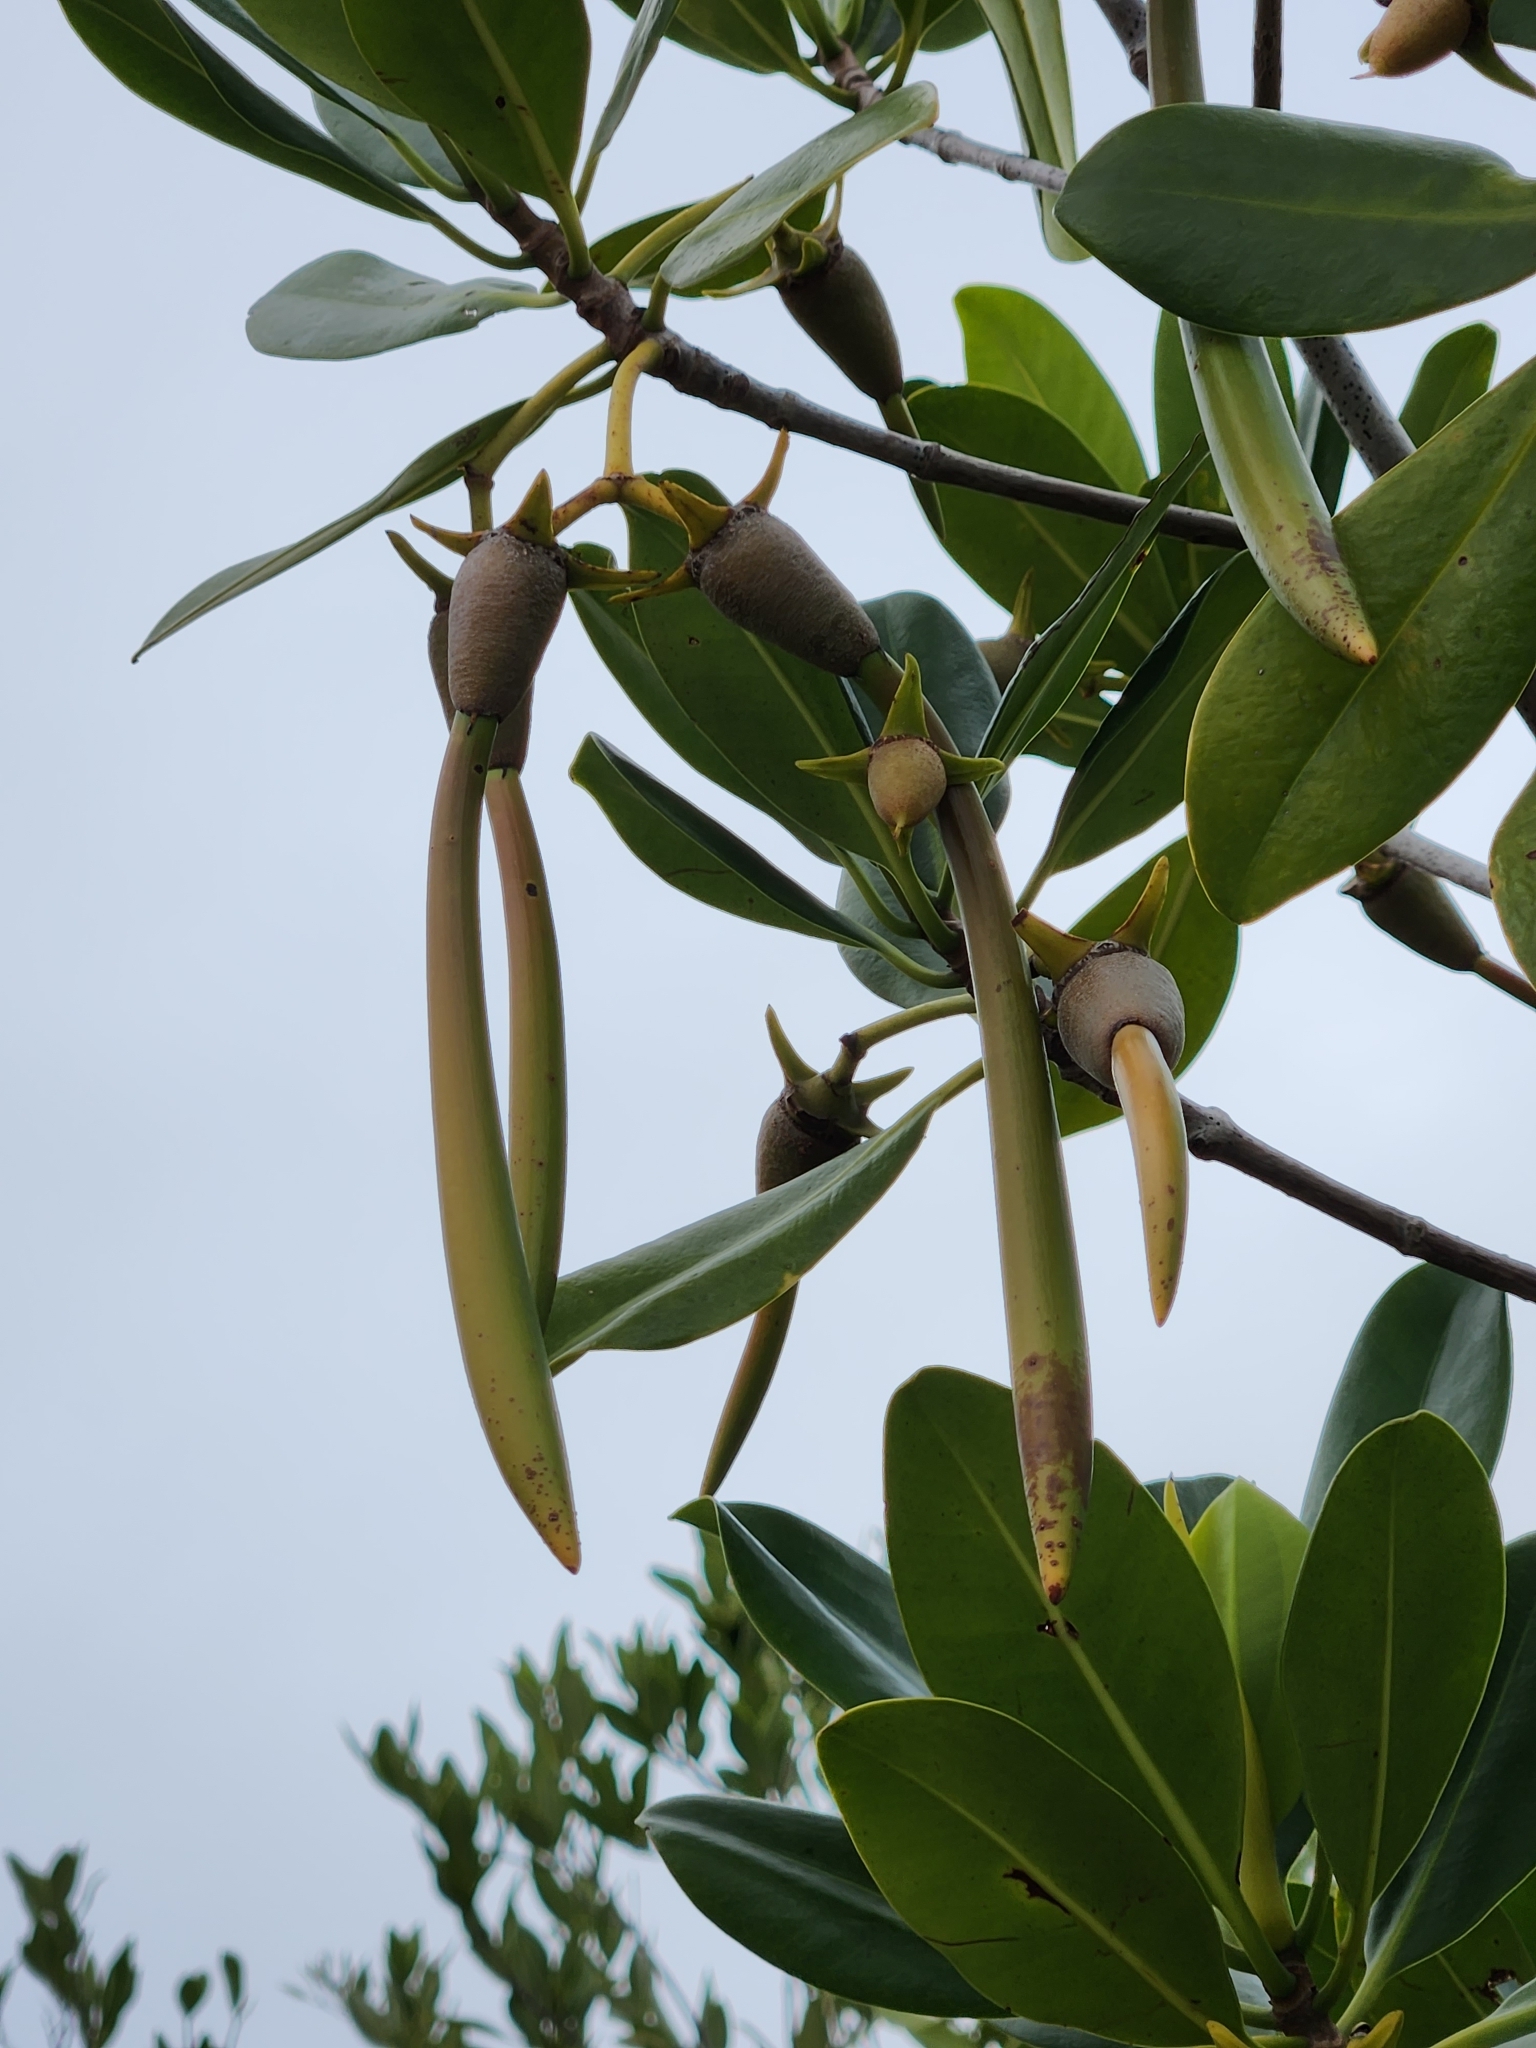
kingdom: Plantae
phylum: Tracheophyta
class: Magnoliopsida
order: Malpighiales
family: Rhizophoraceae
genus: Rhizophora
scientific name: Rhizophora mangle
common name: Red mangrove
